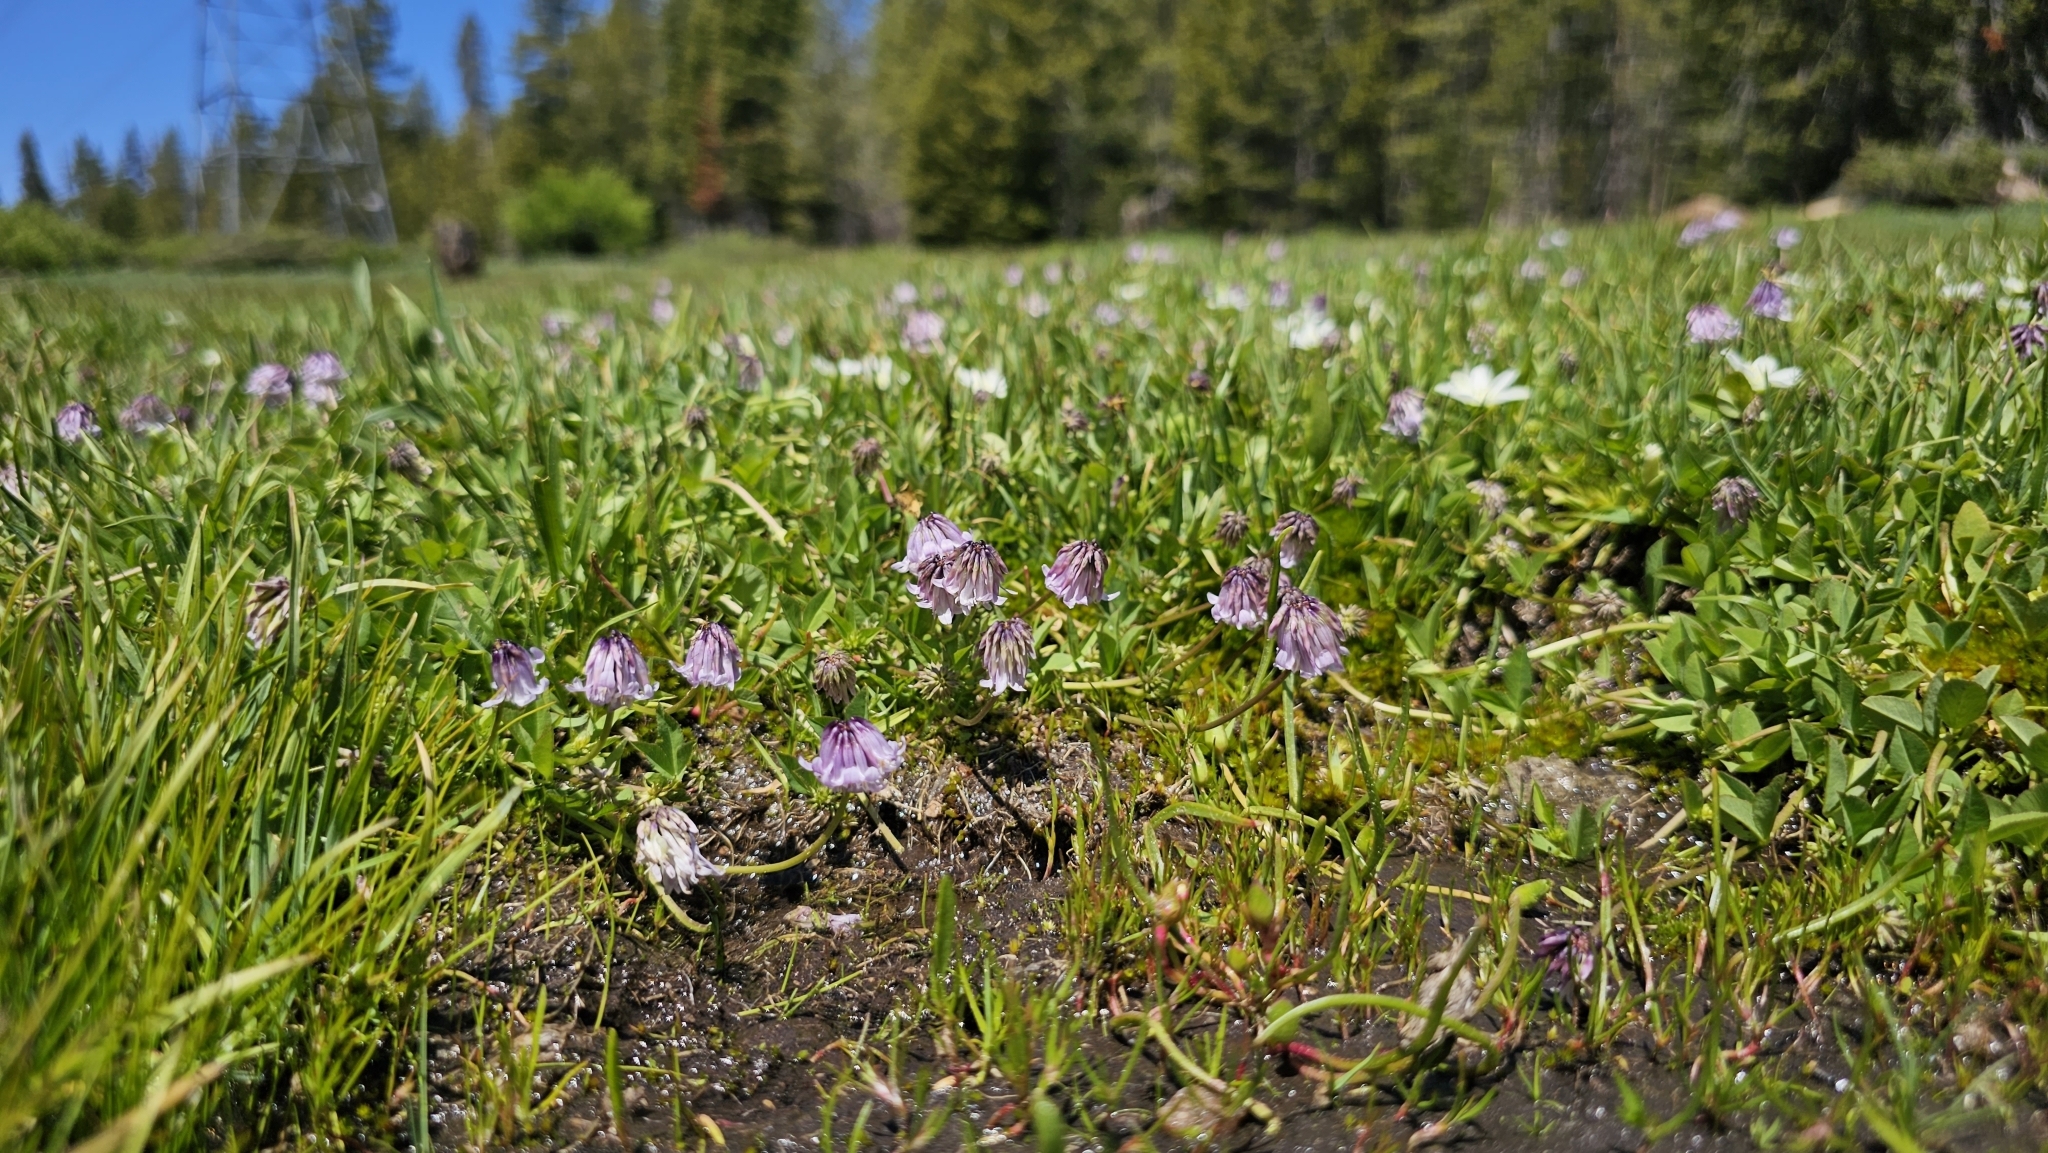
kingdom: Plantae
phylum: Tracheophyta
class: Magnoliopsida
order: Fabales
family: Fabaceae
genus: Trifolium
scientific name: Trifolium bolanderi
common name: Bolander's clover
